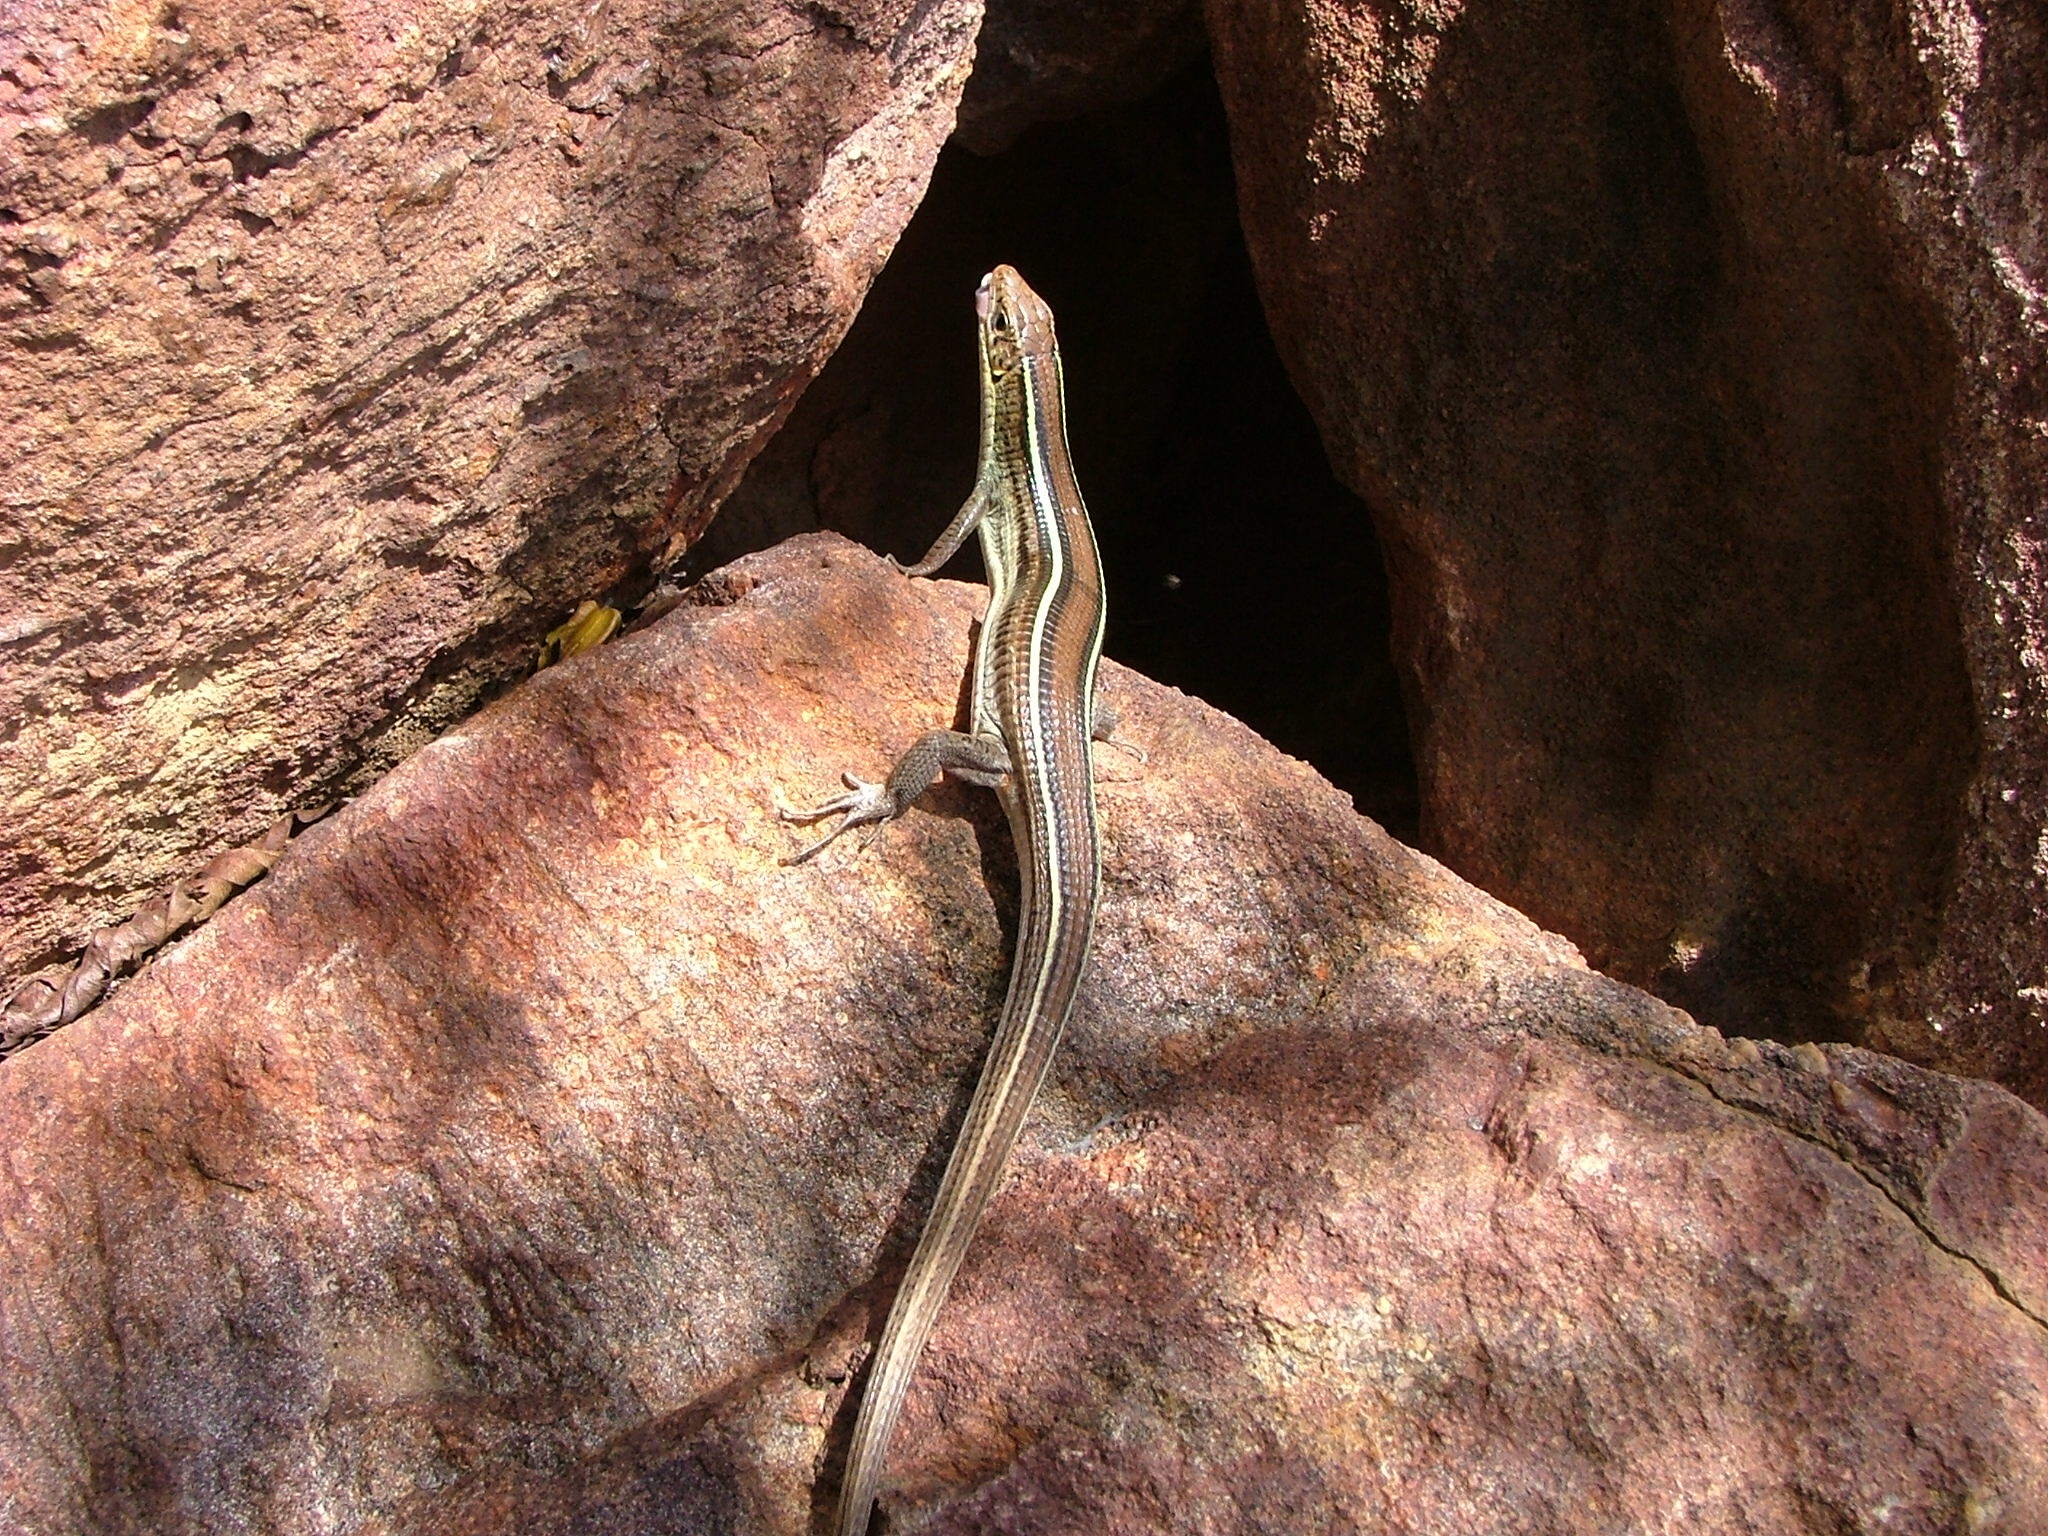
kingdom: Animalia
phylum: Chordata
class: Squamata
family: Gerrhosauridae
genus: Gerrhosaurus
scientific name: Gerrhosaurus flavigularis
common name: Yellow-throated plated lizard
